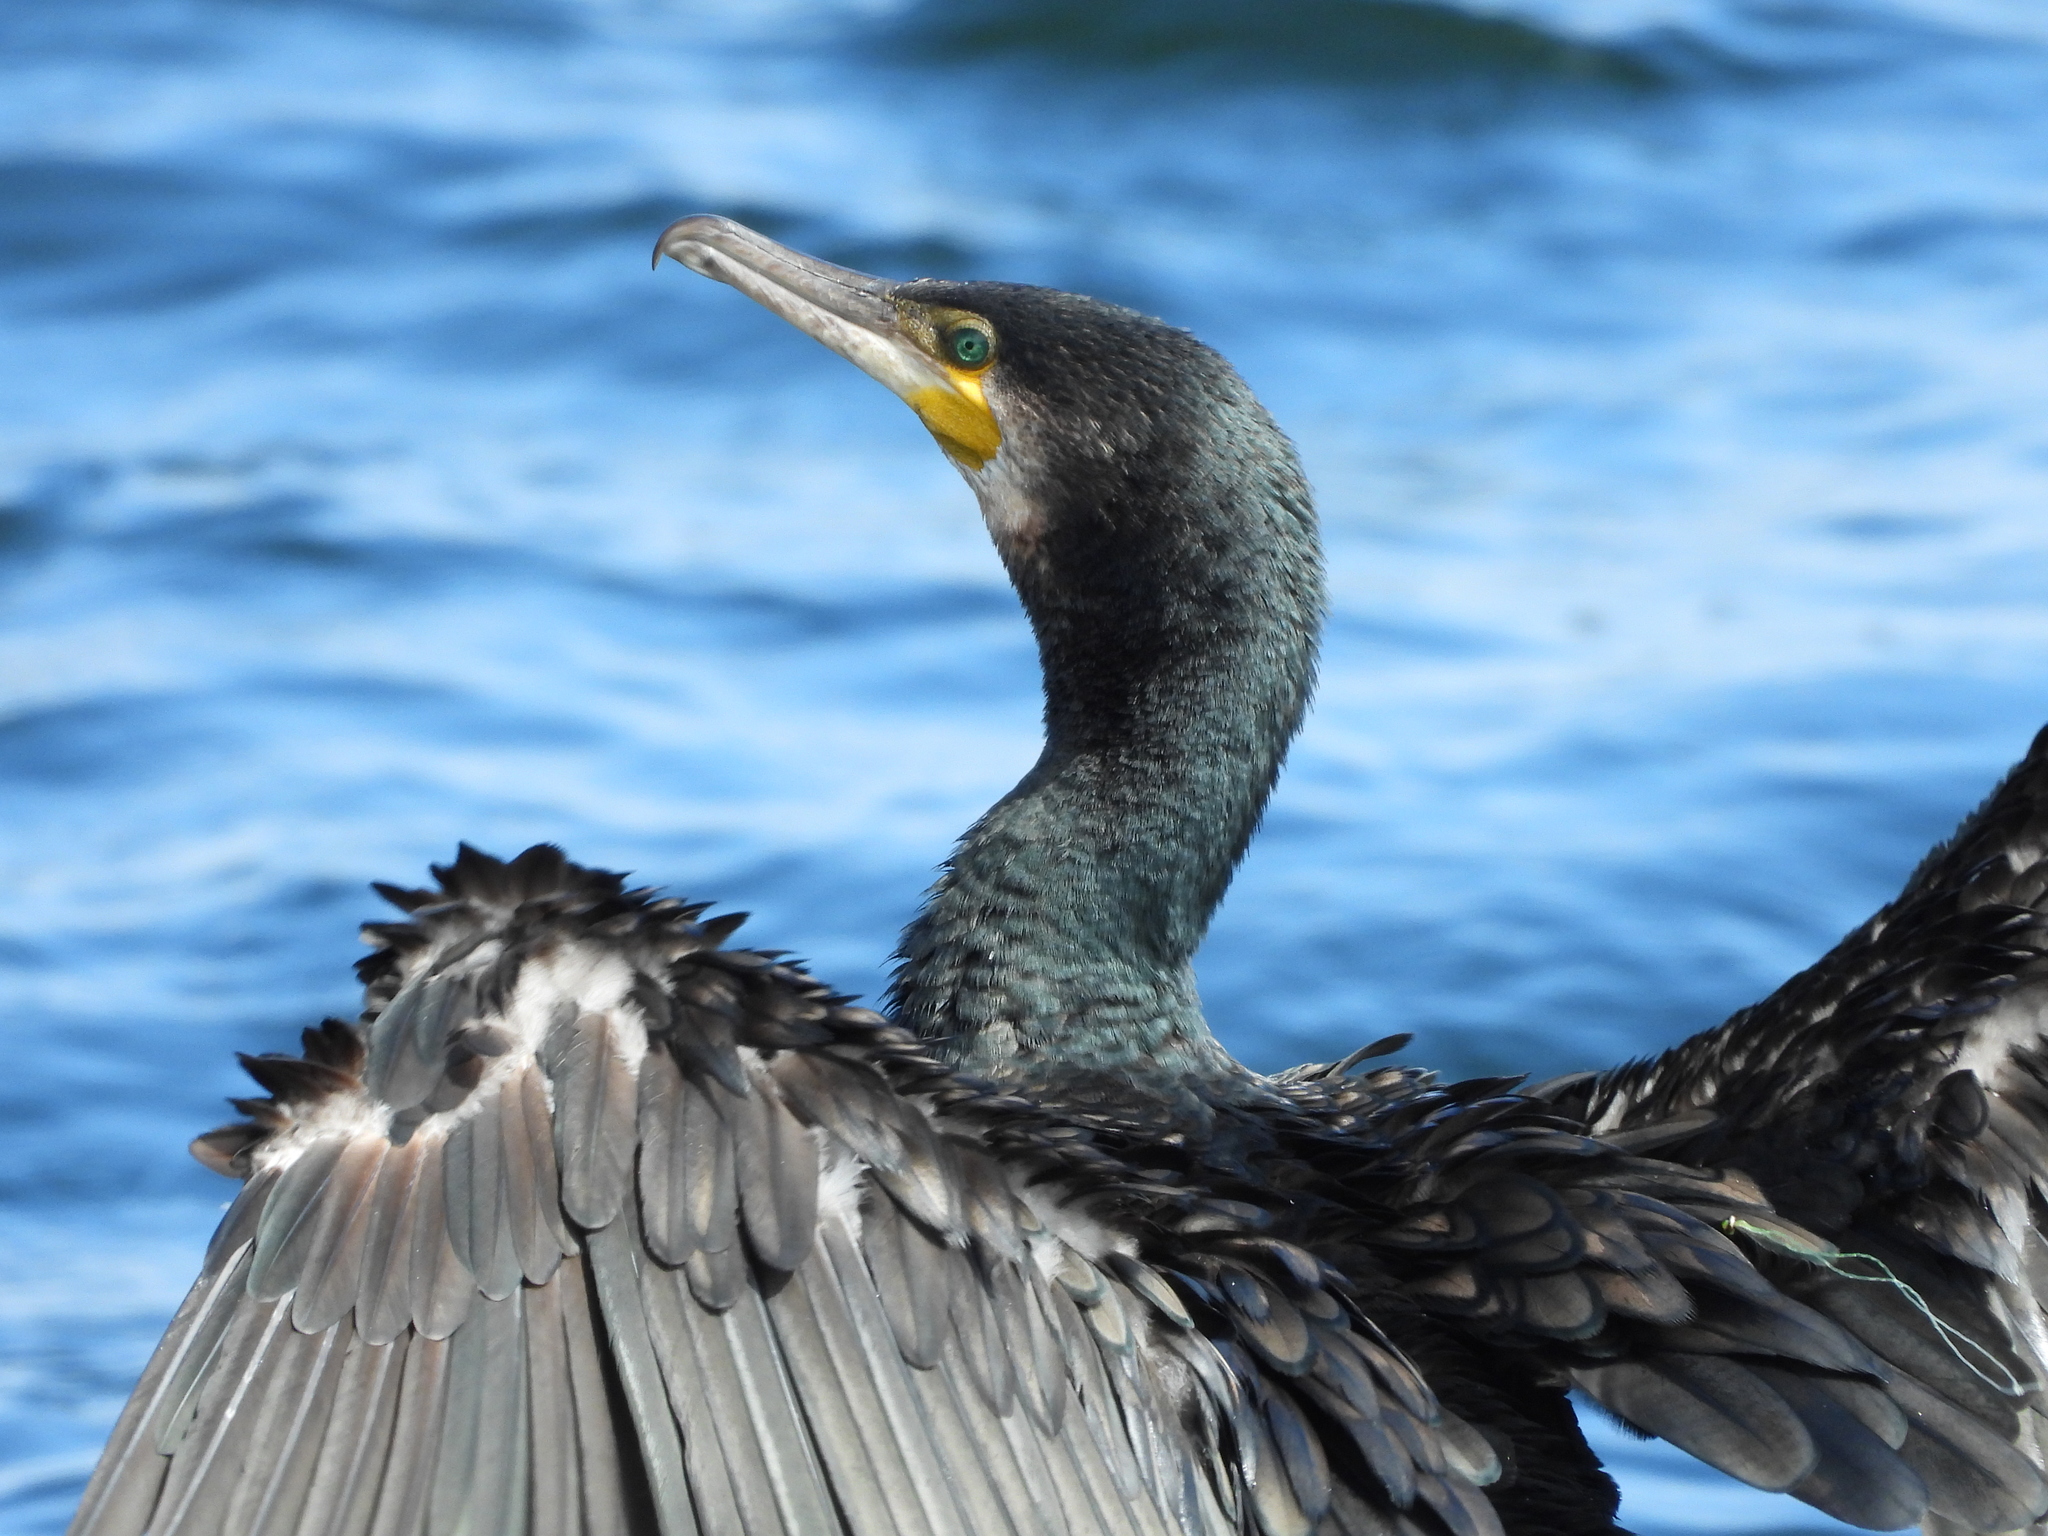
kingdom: Animalia
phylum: Chordata
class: Aves
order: Suliformes
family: Phalacrocoracidae
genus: Phalacrocorax
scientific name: Phalacrocorax carbo
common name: Great cormorant
